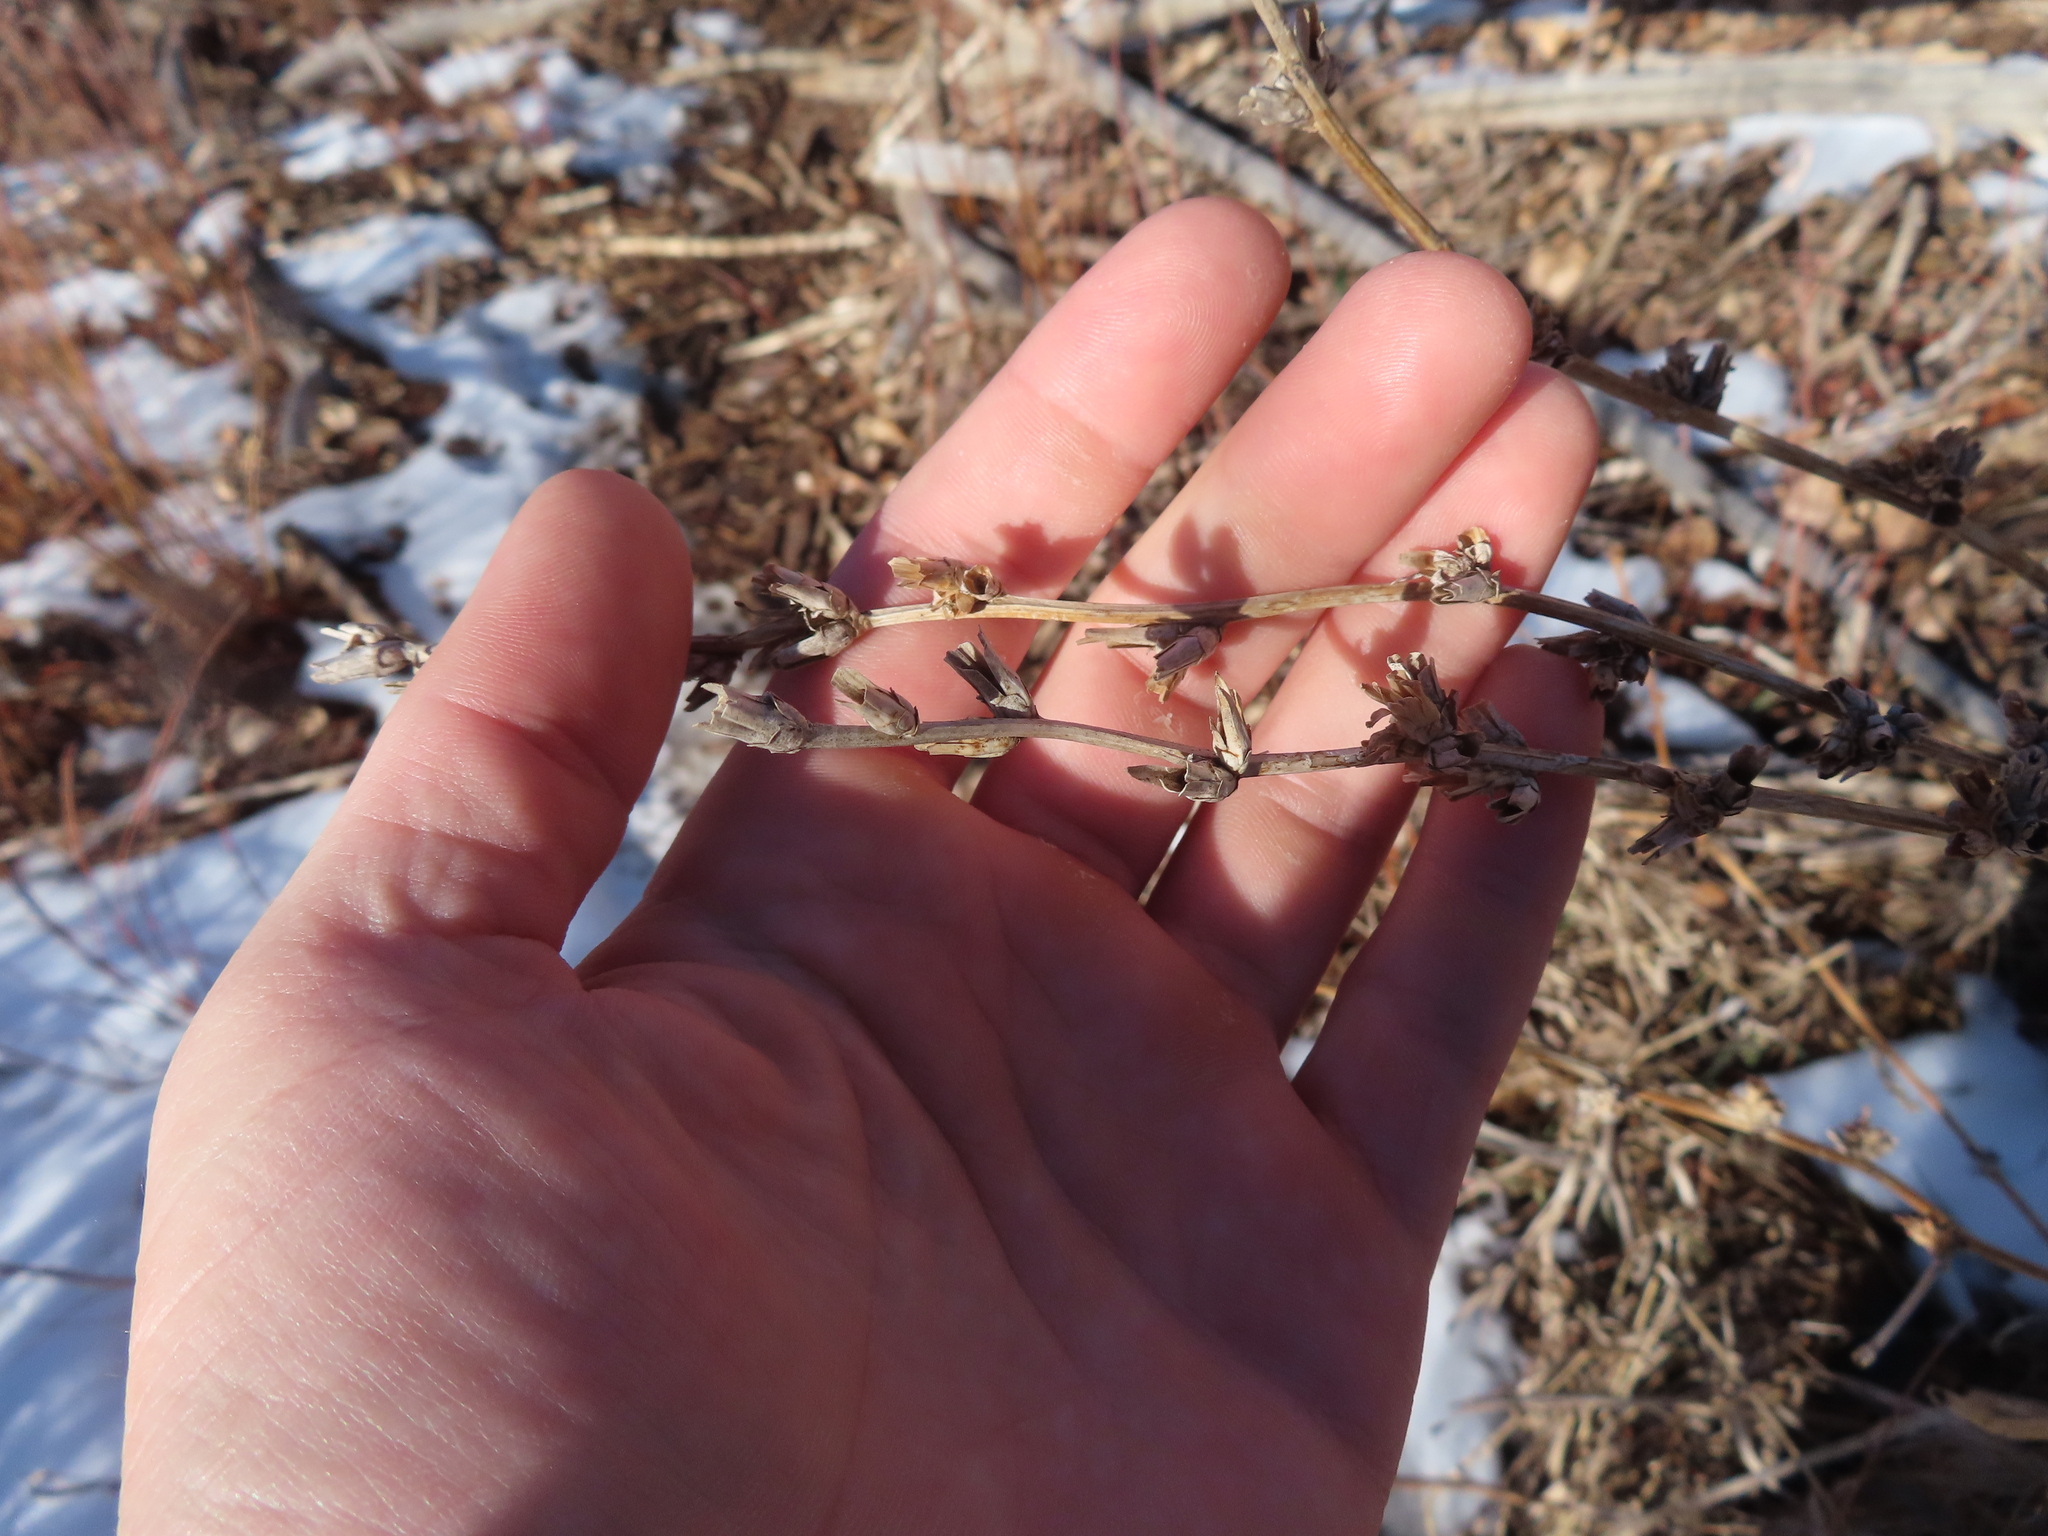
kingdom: Plantae
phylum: Tracheophyta
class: Magnoliopsida
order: Asterales
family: Asteraceae
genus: Cichorium
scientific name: Cichorium intybus
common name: Chicory
